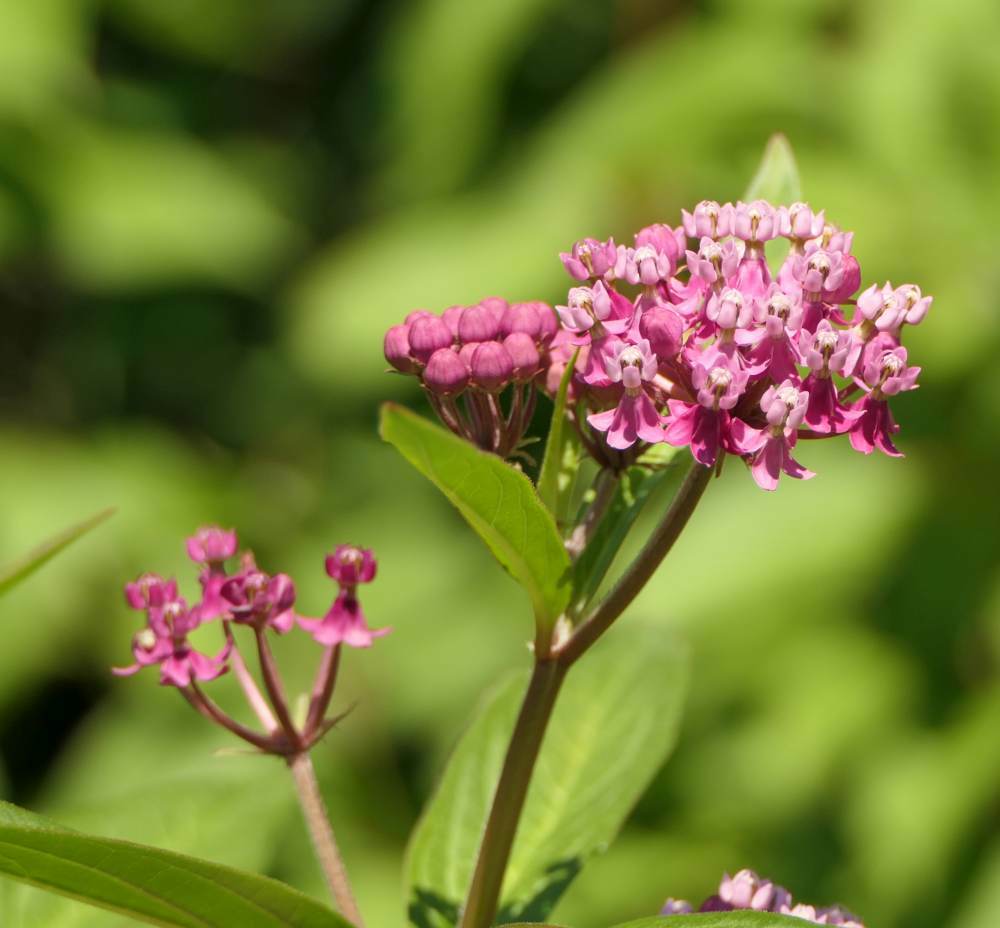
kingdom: Plantae
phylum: Tracheophyta
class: Magnoliopsida
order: Gentianales
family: Apocynaceae
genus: Asclepias
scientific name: Asclepias incarnata
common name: Swamp milkweed
